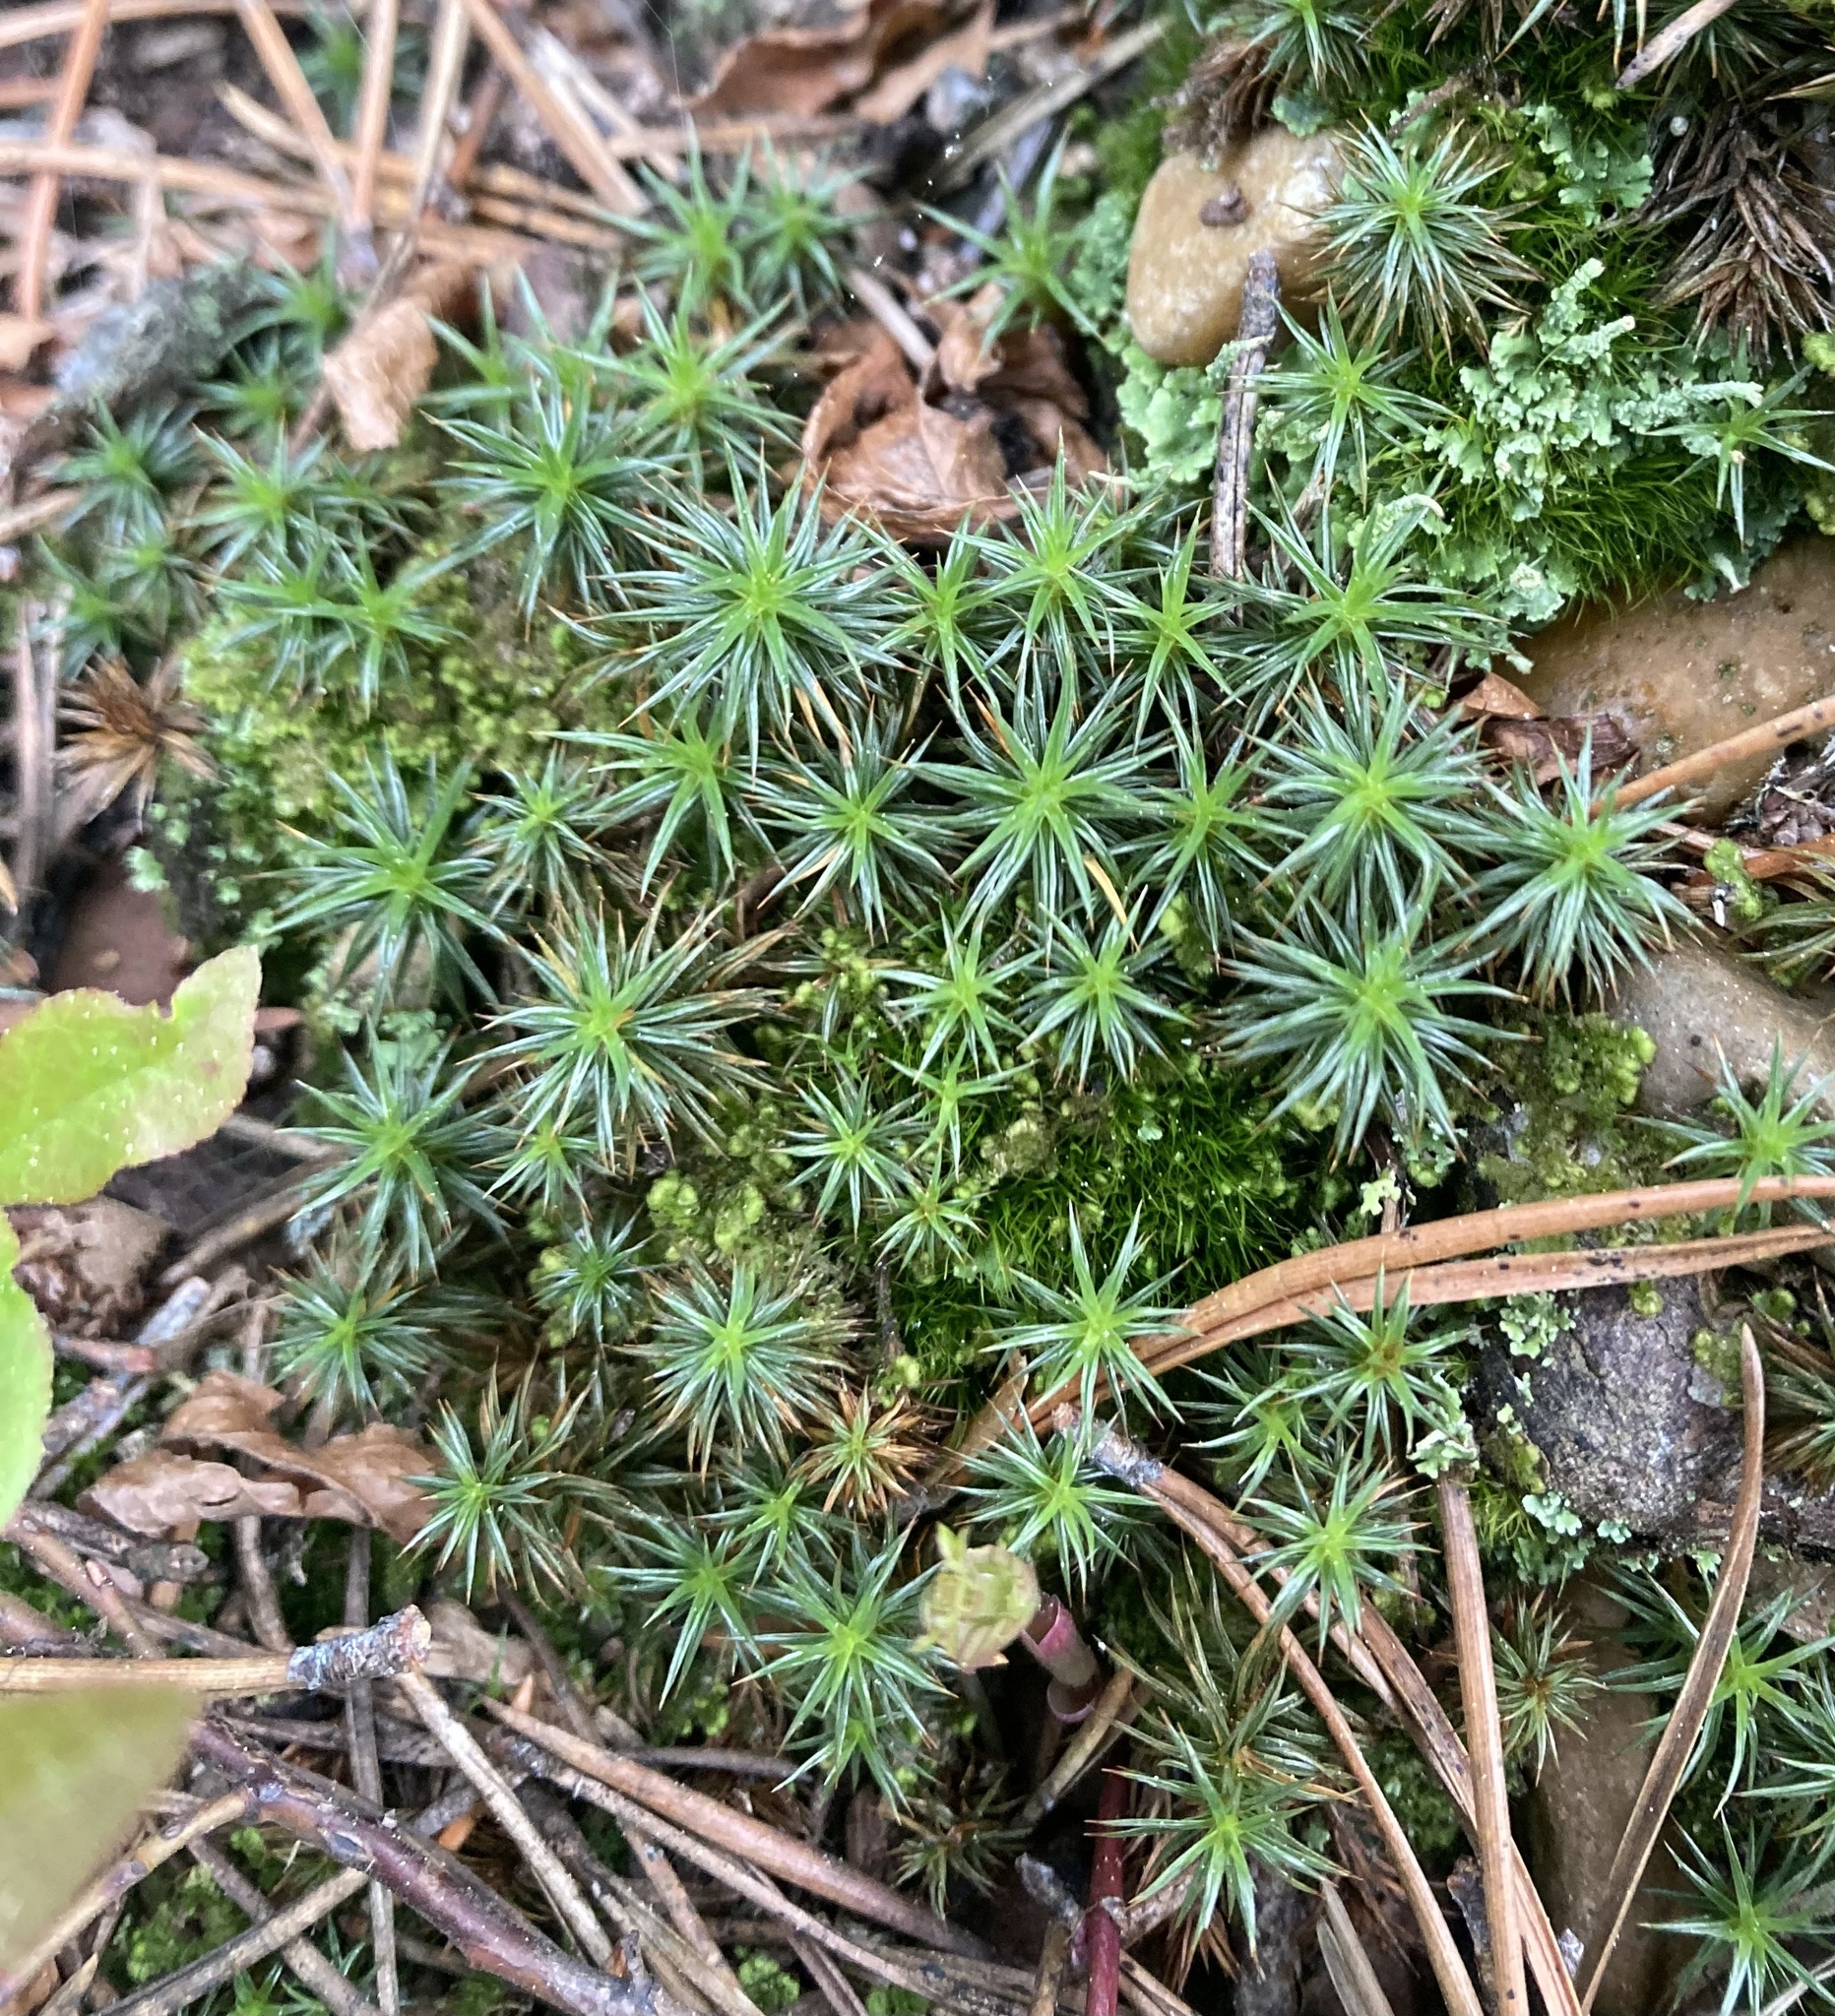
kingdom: Plantae
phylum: Bryophyta
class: Polytrichopsida
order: Polytrichales
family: Polytrichaceae
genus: Polytrichum
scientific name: Polytrichum juniperinum
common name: Juniper haircap moss
